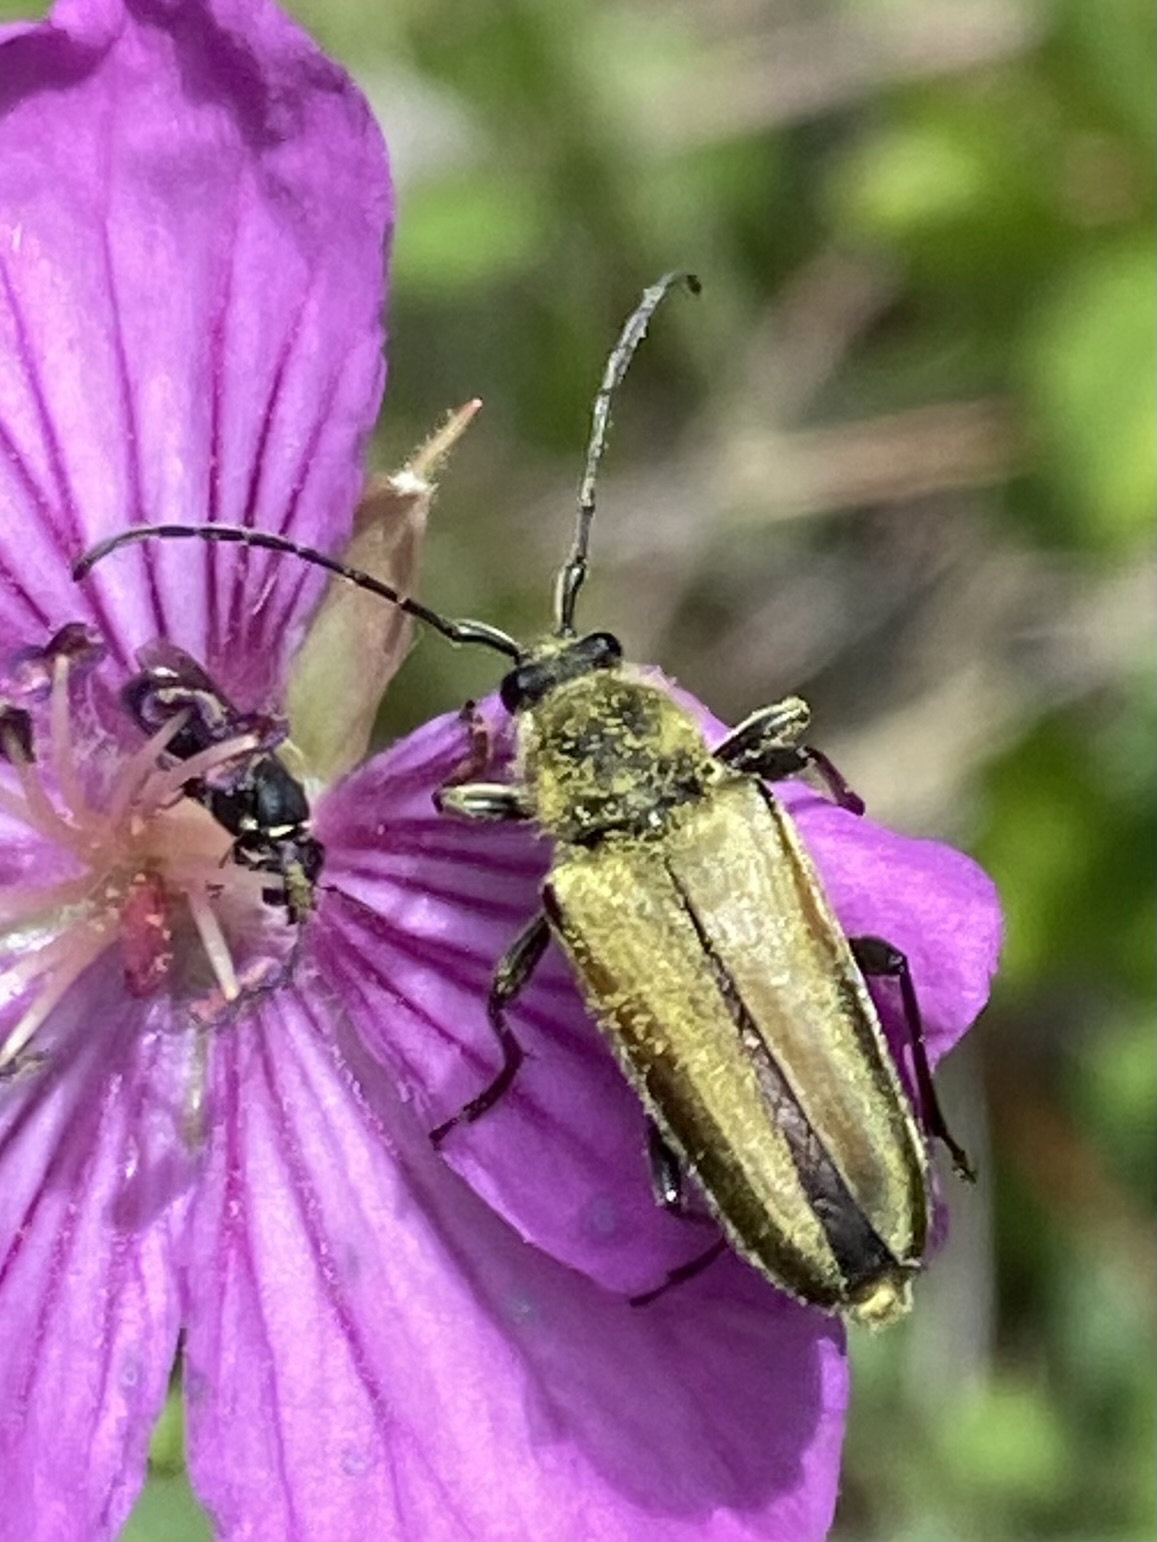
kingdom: Animalia
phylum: Arthropoda
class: Insecta
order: Coleoptera
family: Cerambycidae
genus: Cosmosalia
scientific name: Cosmosalia chrysocoma
